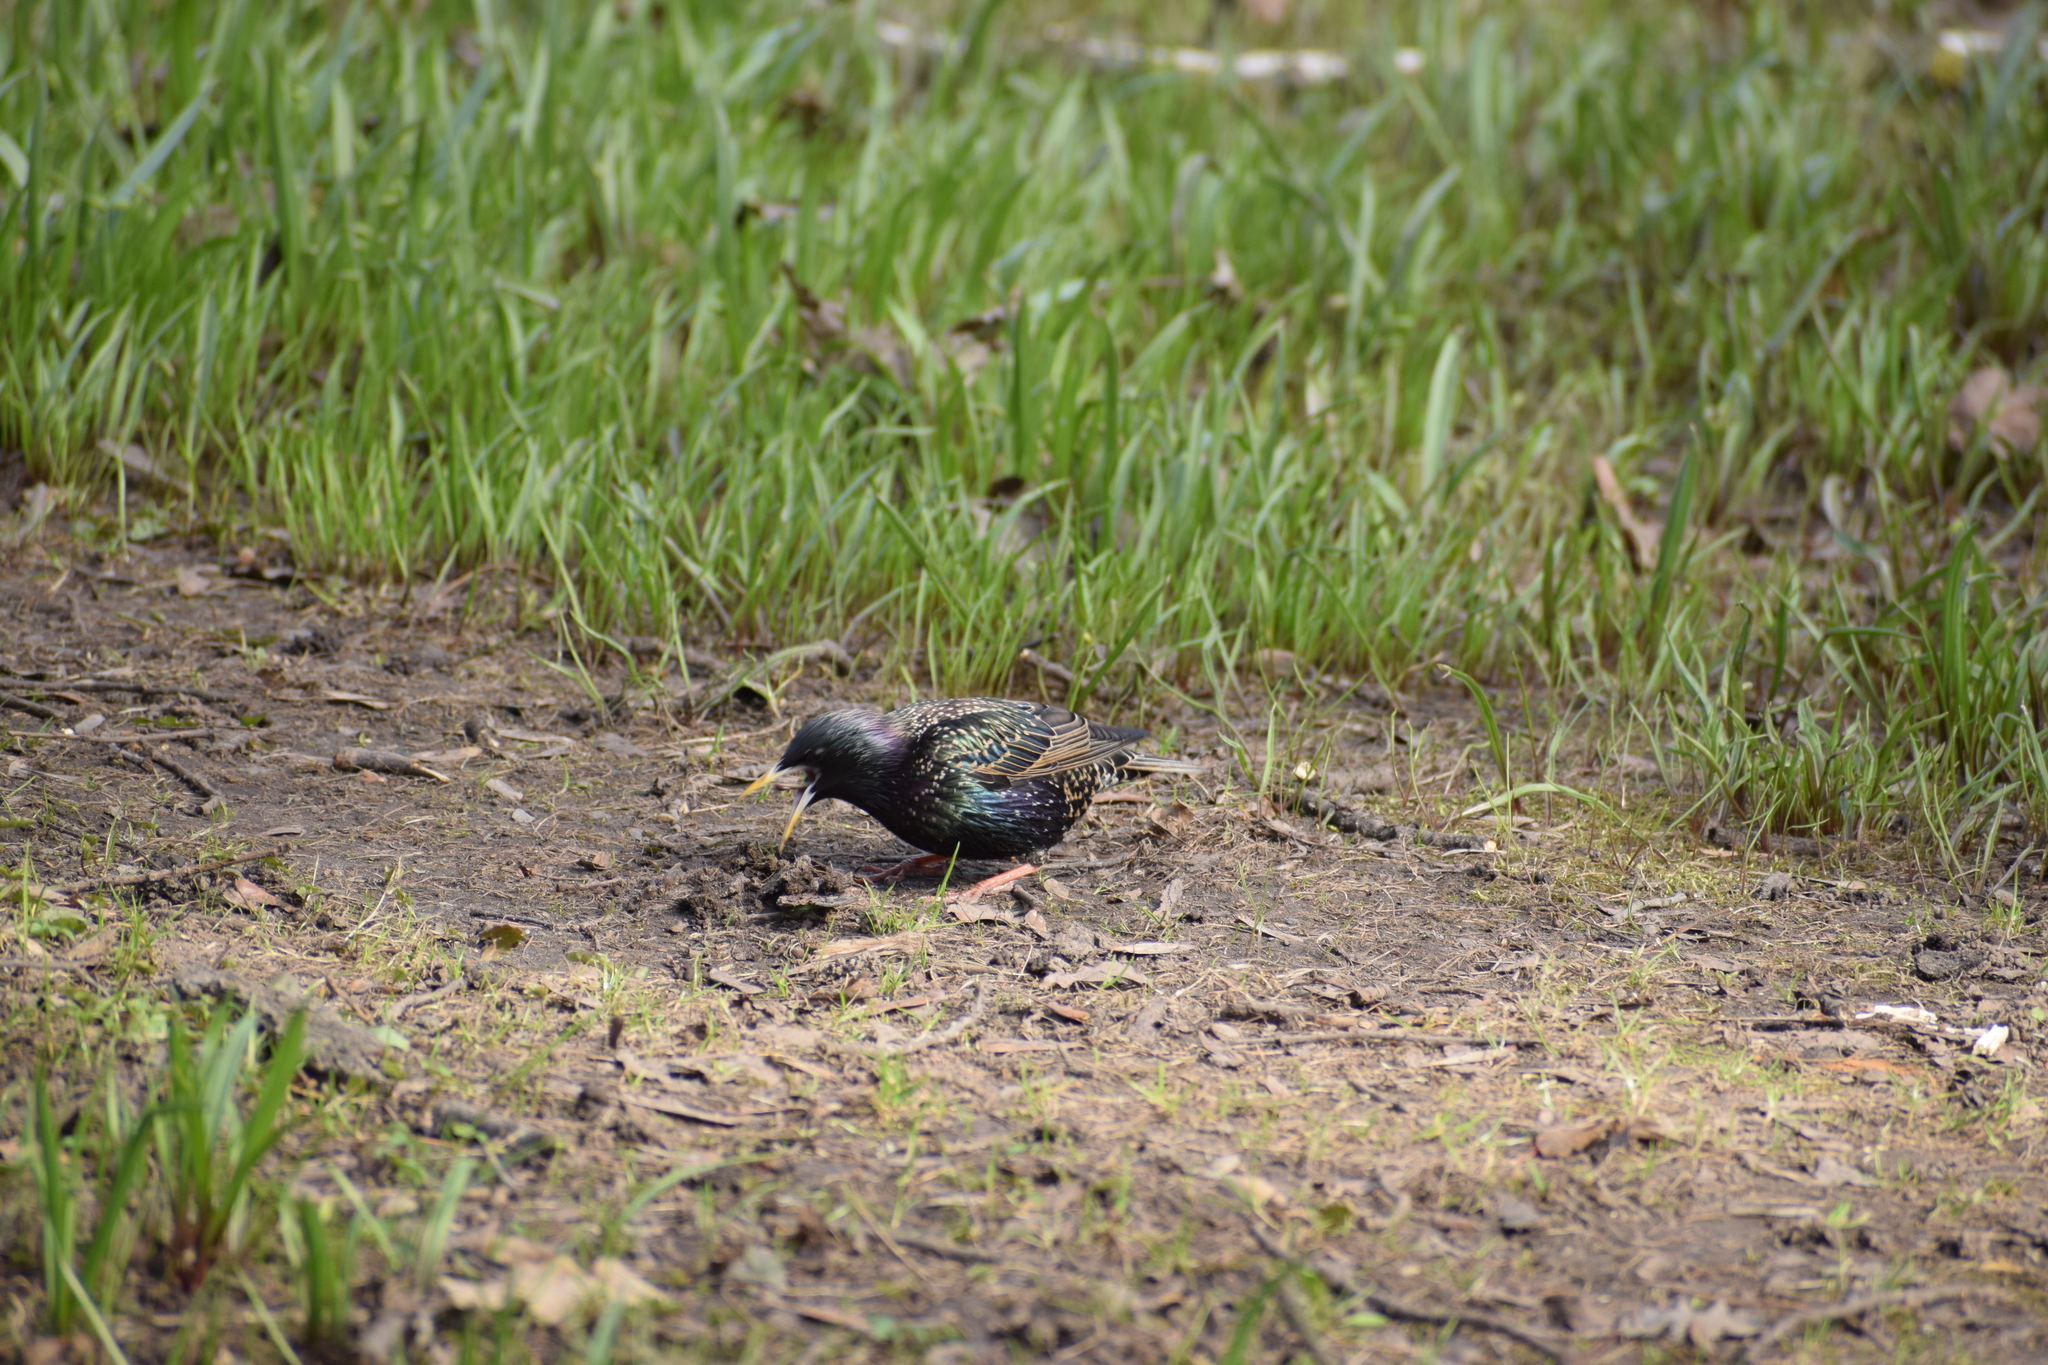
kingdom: Animalia
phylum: Chordata
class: Aves
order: Passeriformes
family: Sturnidae
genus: Sturnus
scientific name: Sturnus vulgaris
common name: Common starling
